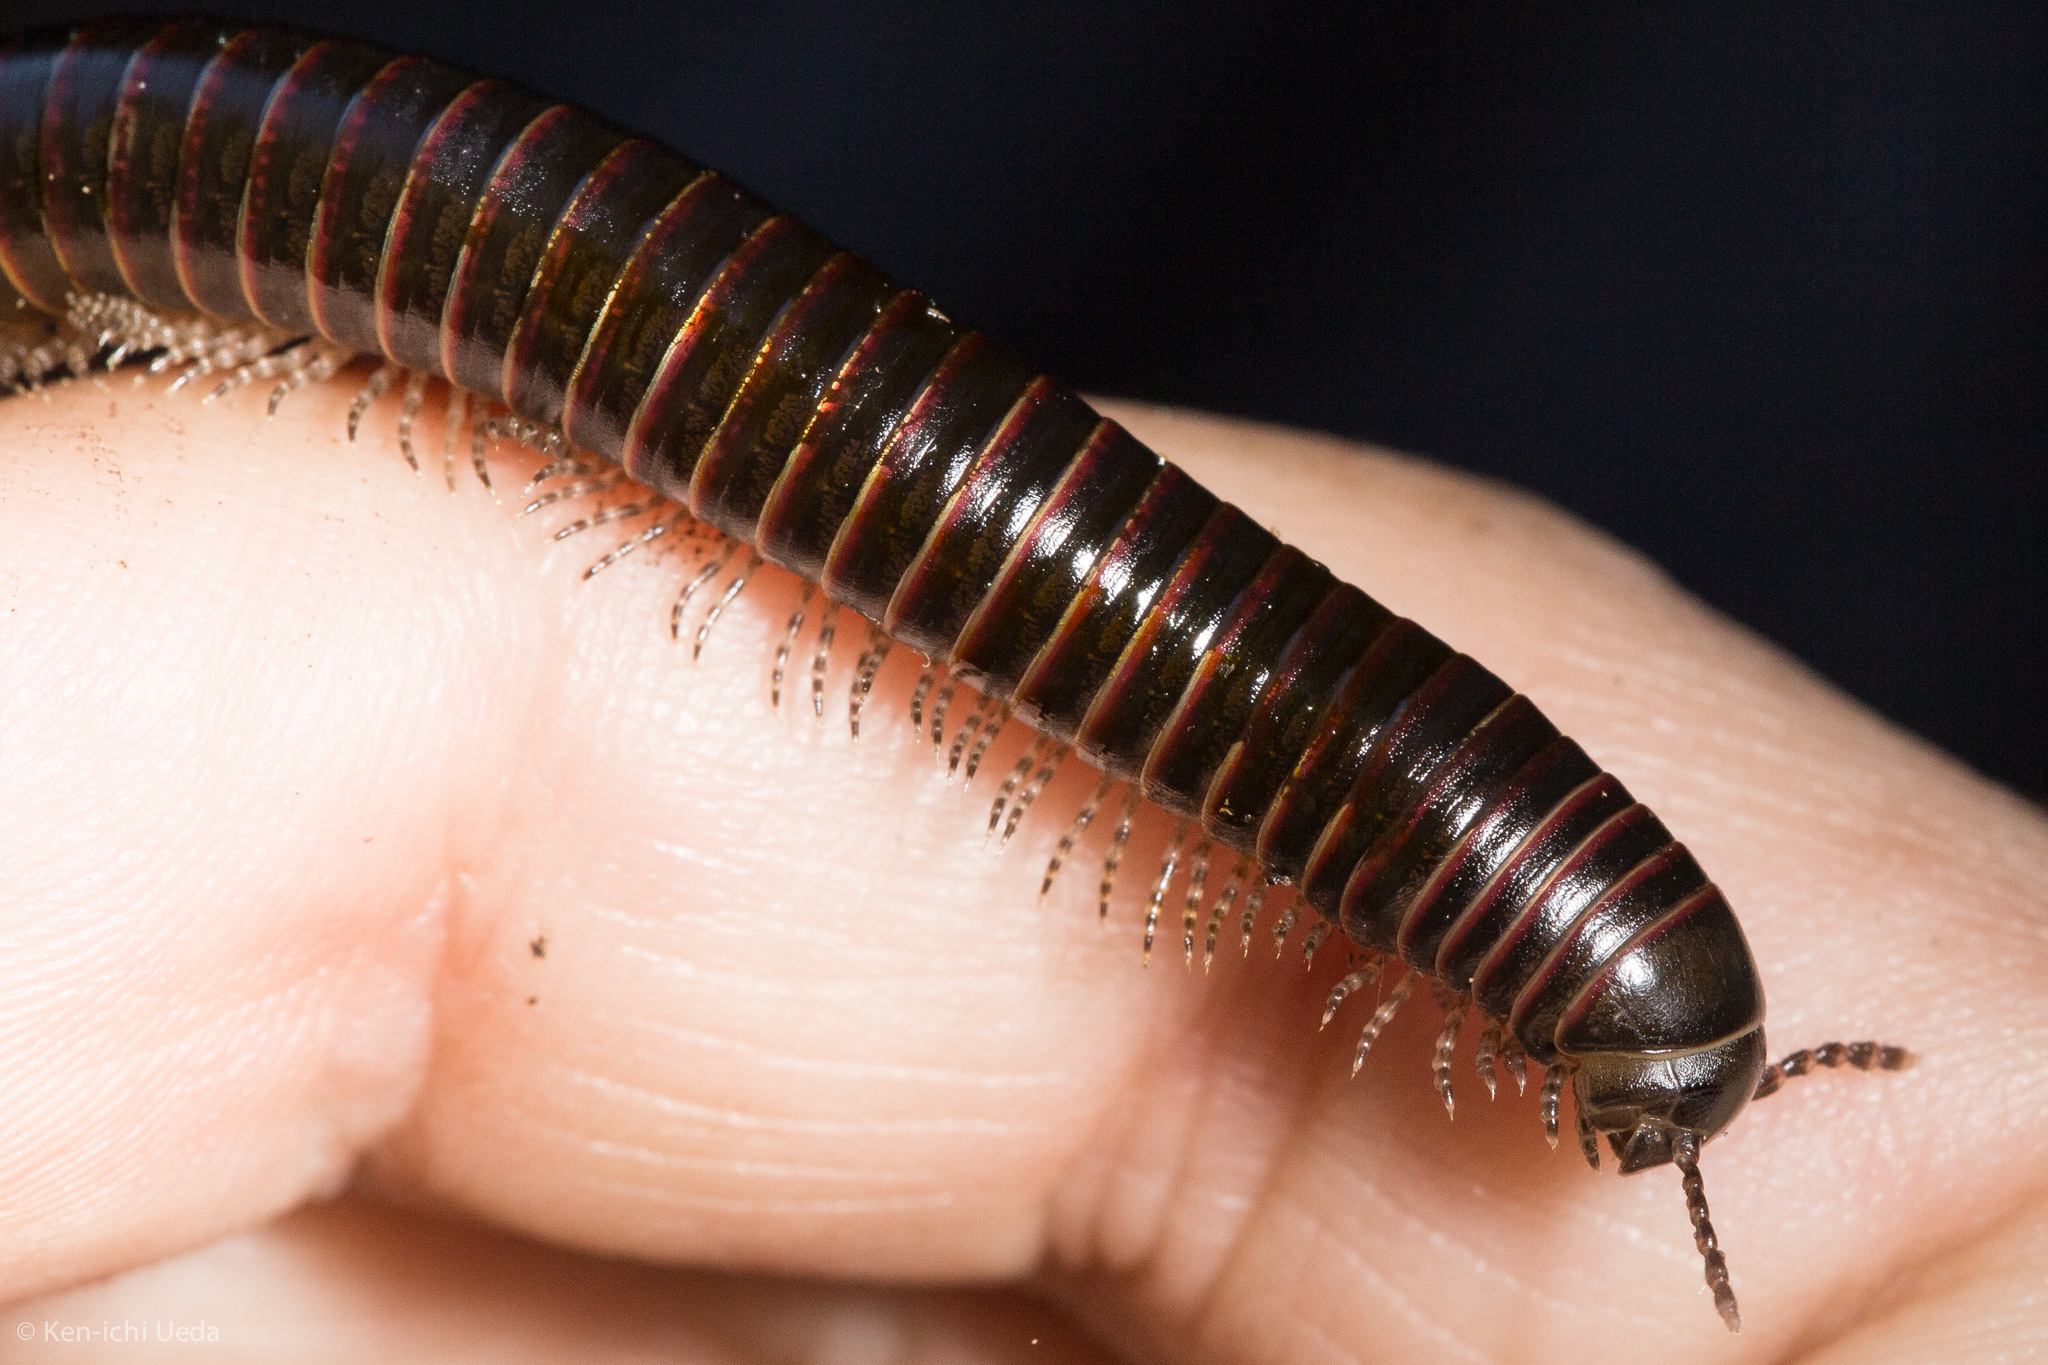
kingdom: Animalia
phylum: Arthropoda
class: Diplopoda
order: Spirobolida
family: Spirobolidae
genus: Tylobolus
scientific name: Tylobolus deses
